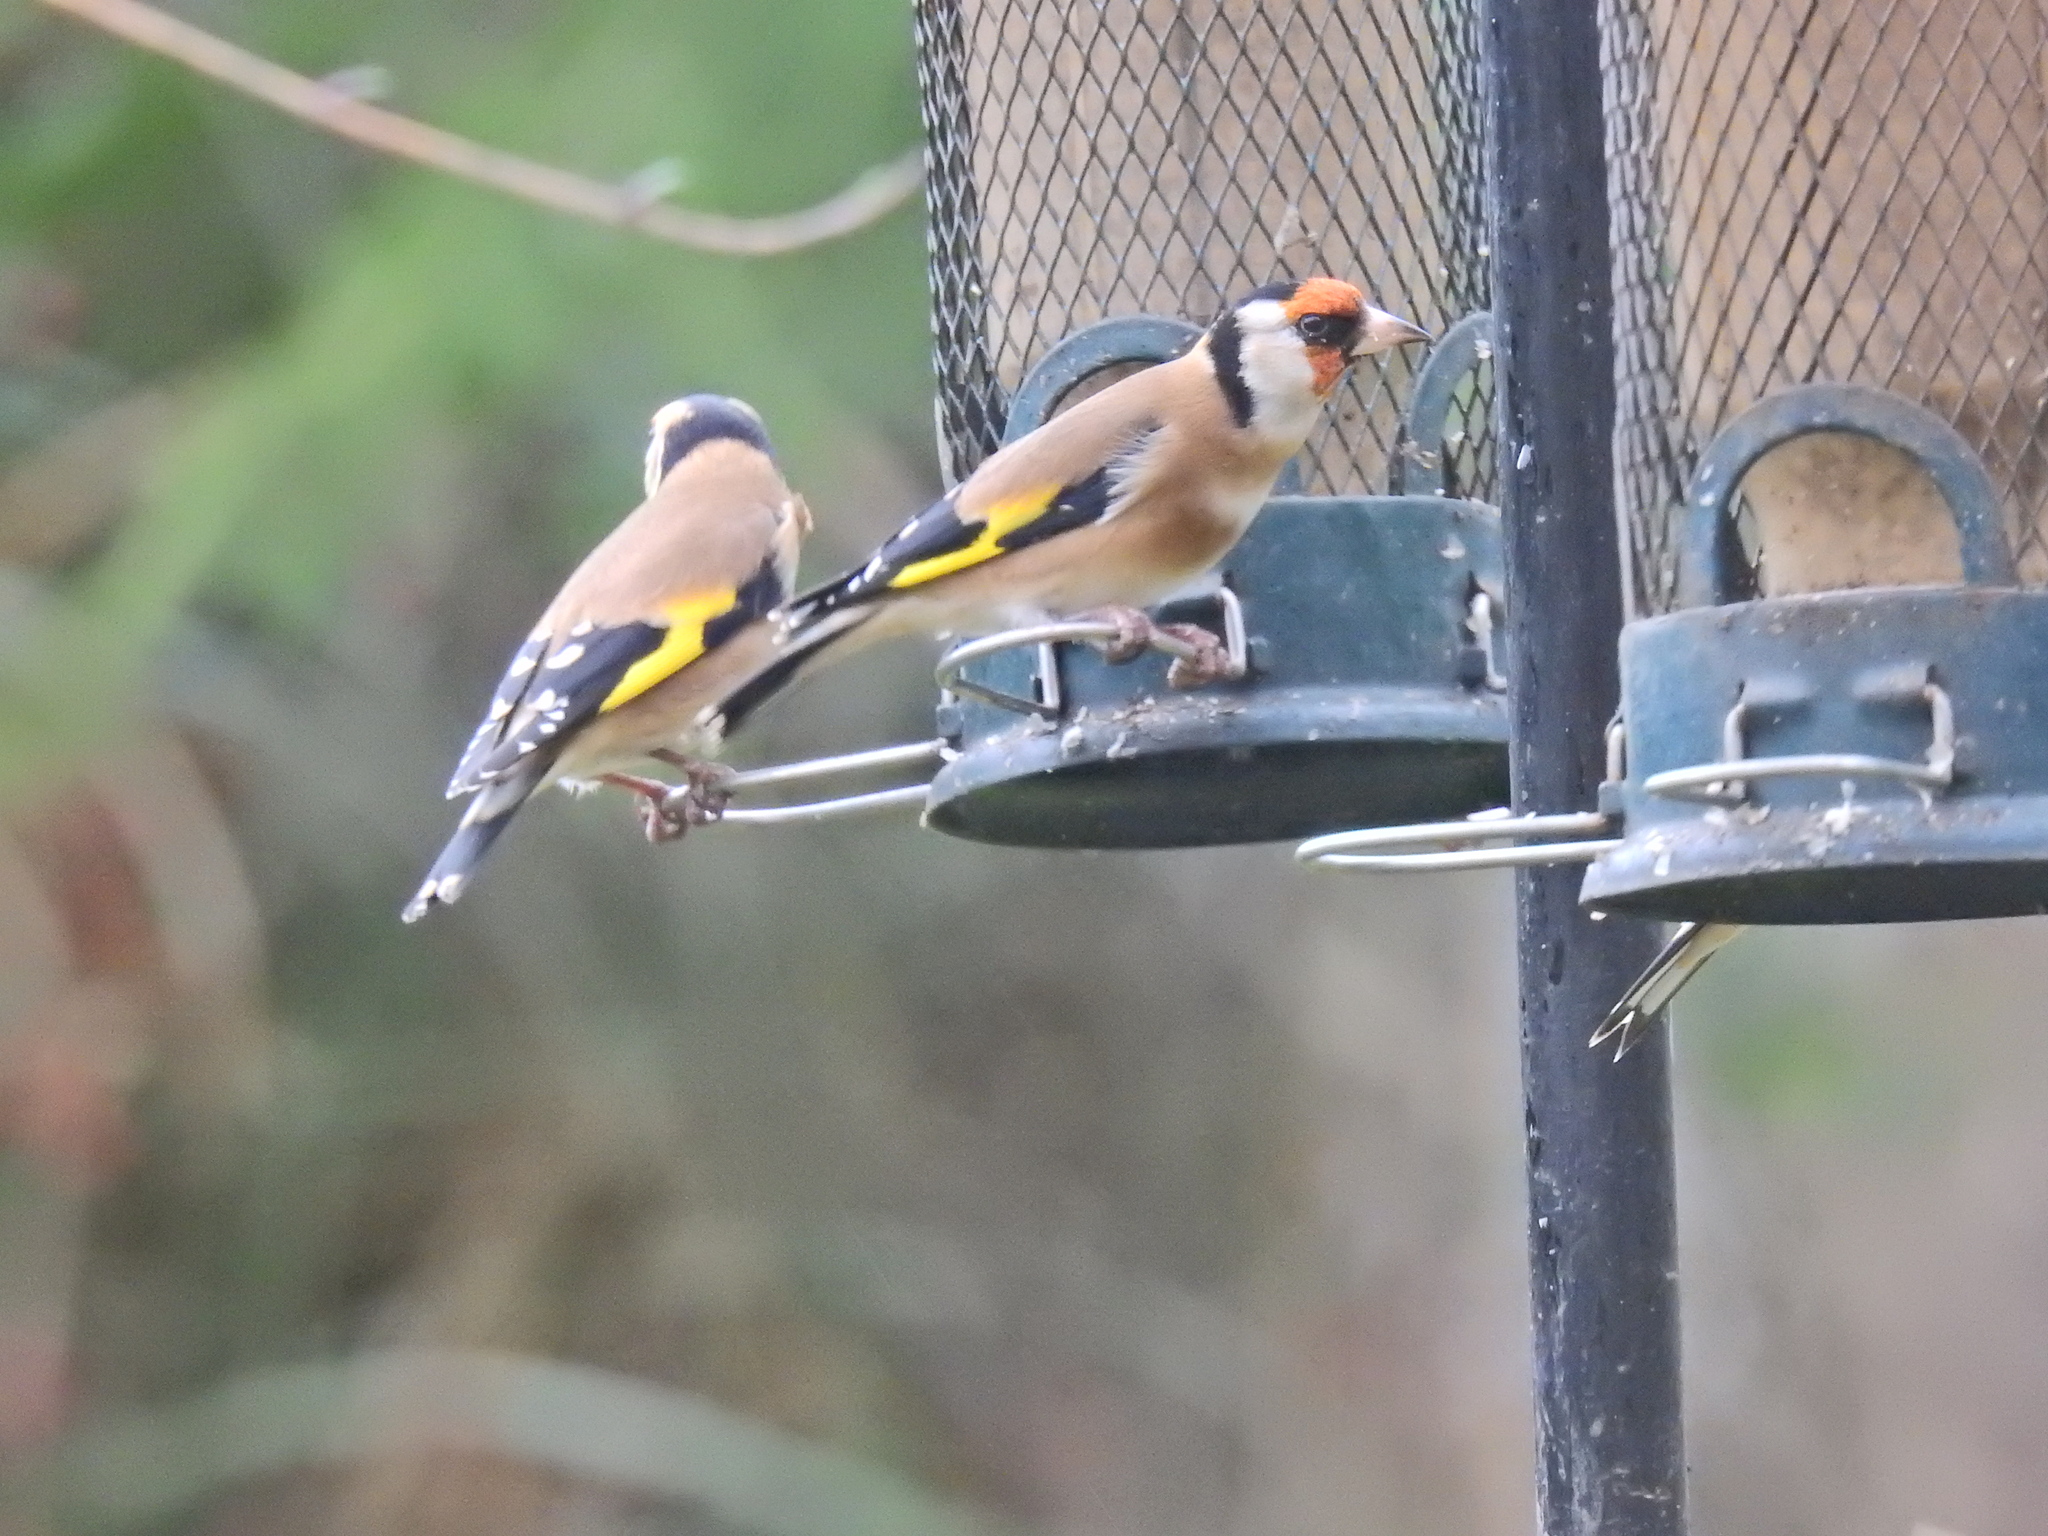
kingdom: Animalia
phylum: Chordata
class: Aves
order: Passeriformes
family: Fringillidae
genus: Carduelis
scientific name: Carduelis carduelis
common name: European goldfinch
